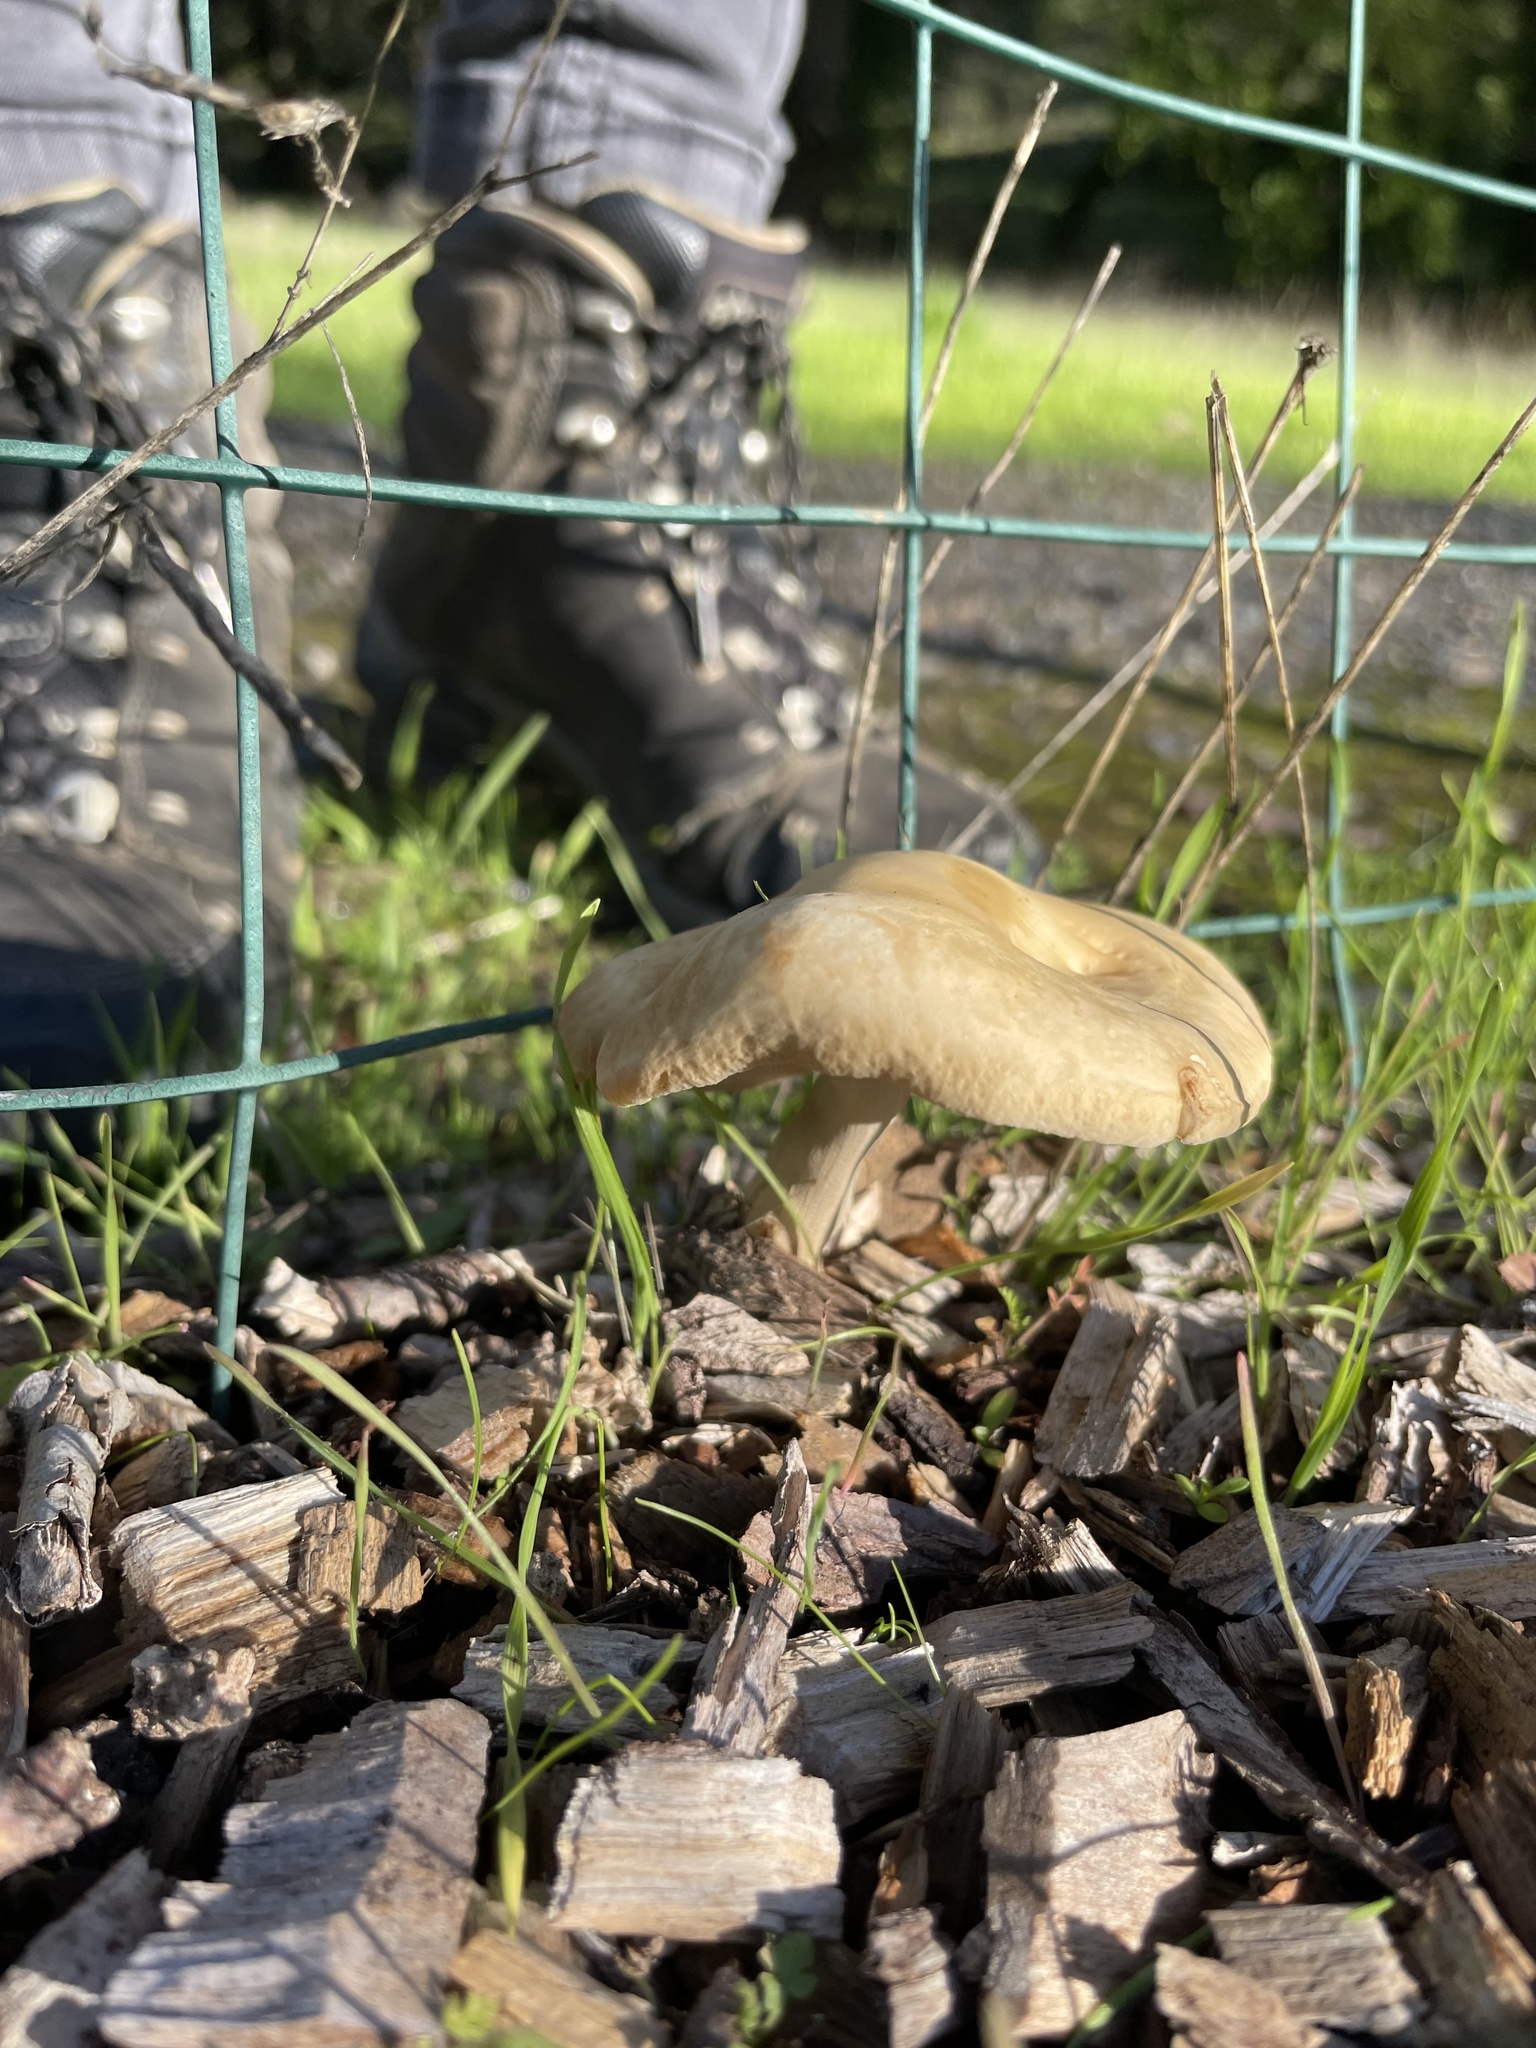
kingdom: Fungi
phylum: Basidiomycota
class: Agaricomycetes
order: Agaricales
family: Strophariaceae
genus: Agrocybe
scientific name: Agrocybe praecox
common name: Spring fieldcap
